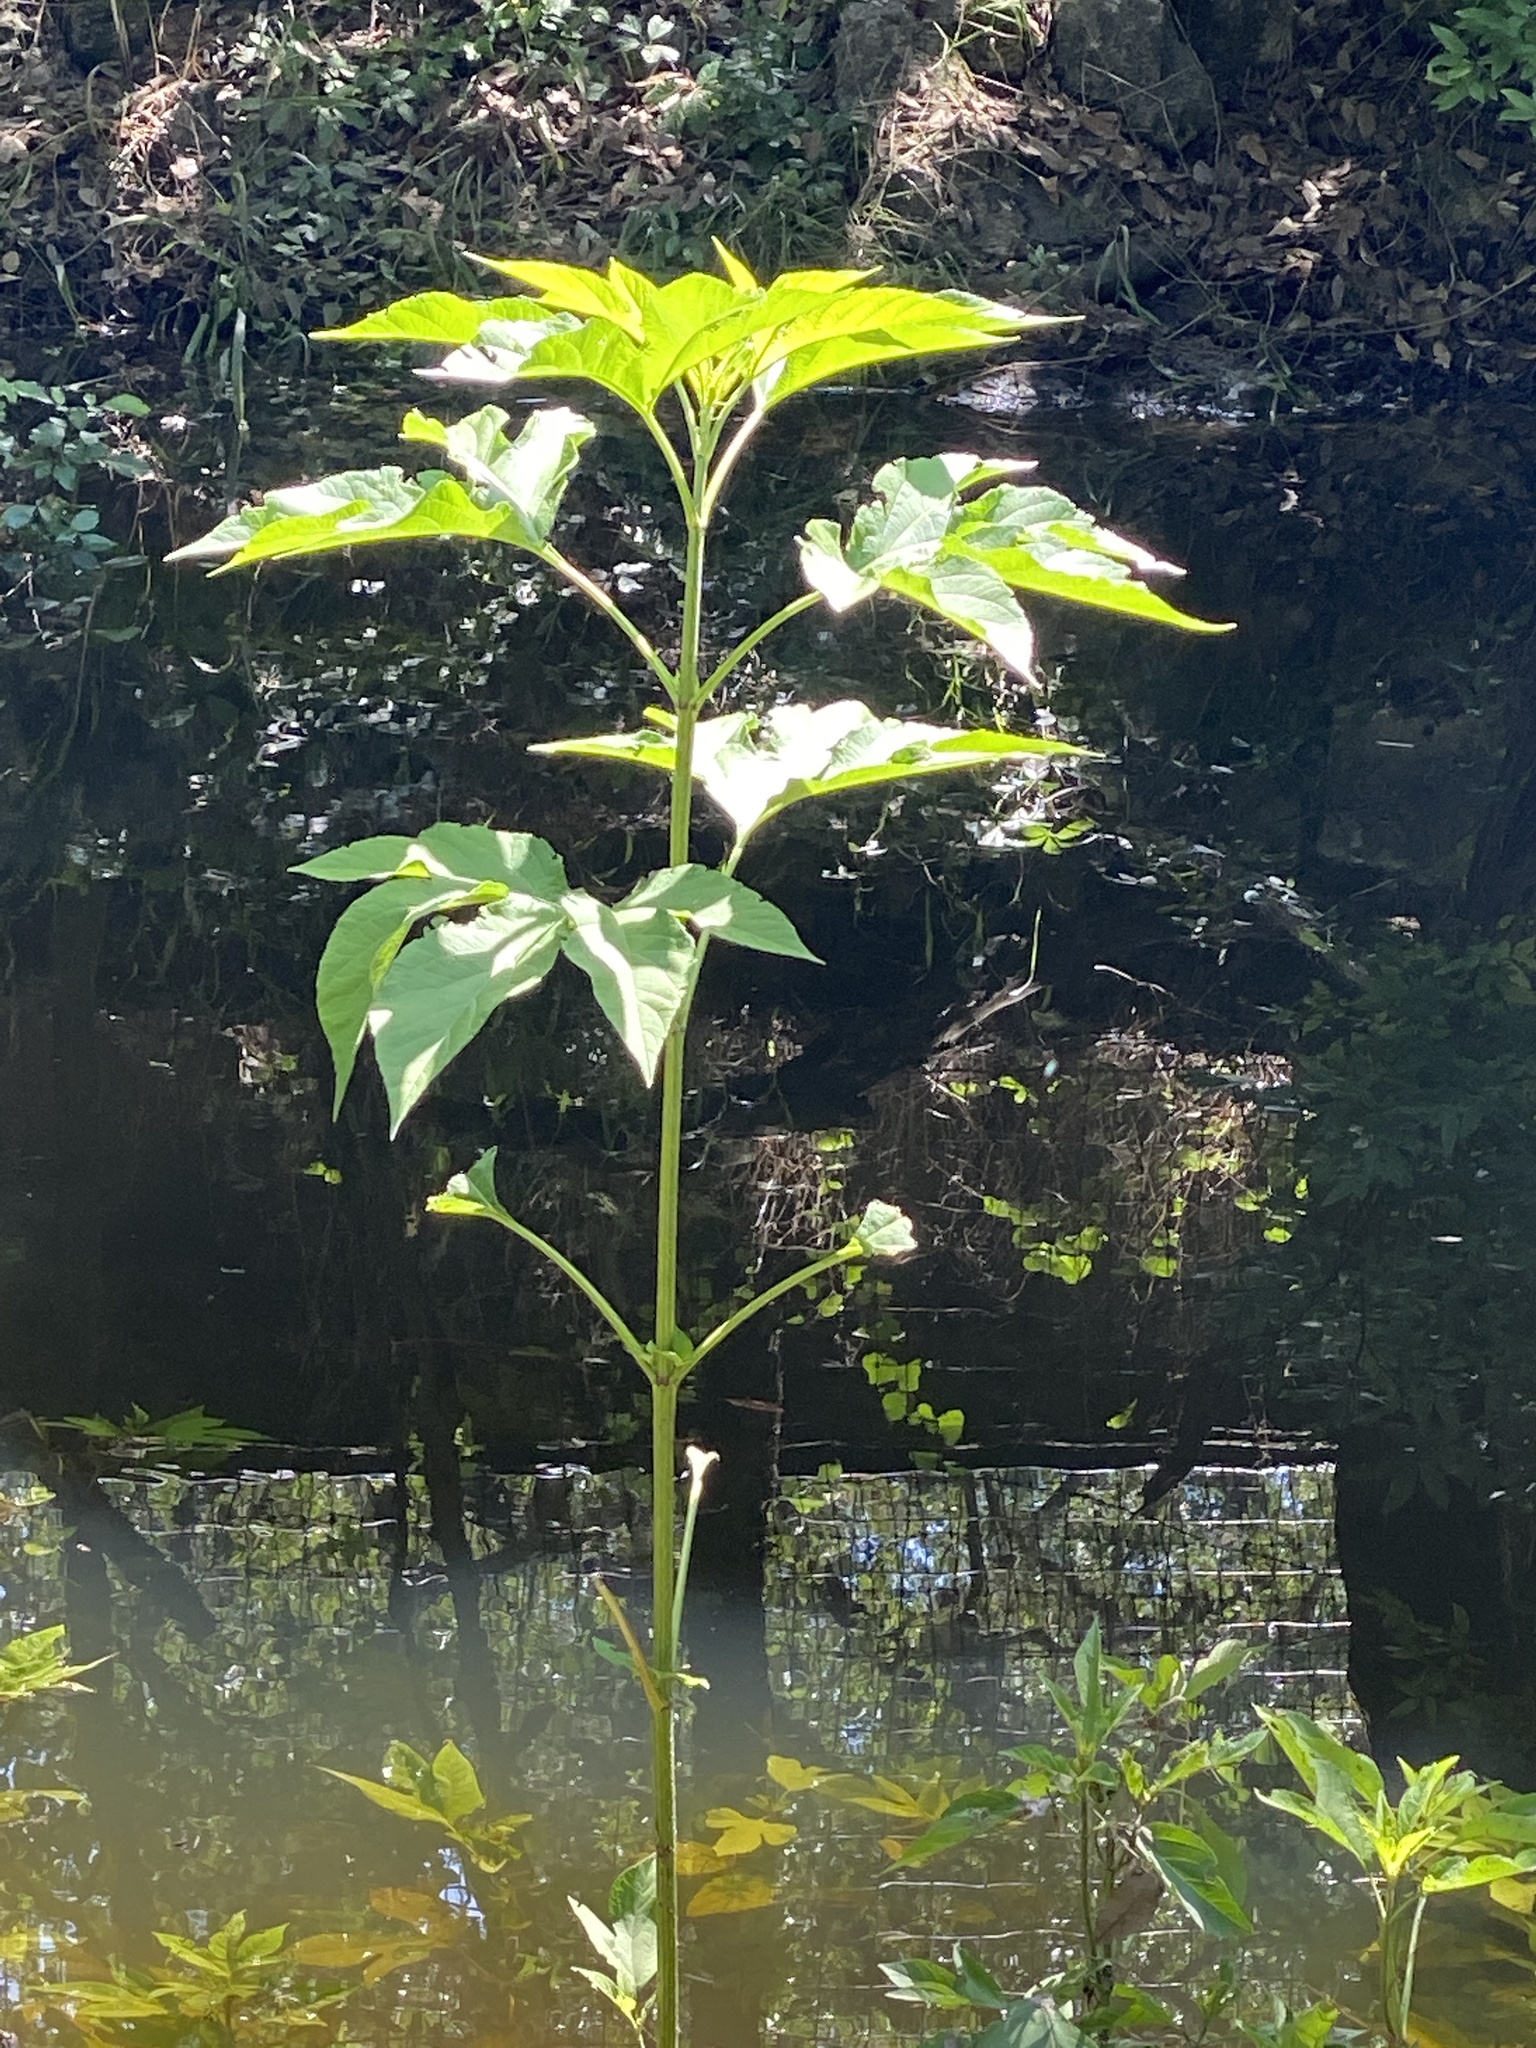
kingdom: Plantae
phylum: Tracheophyta
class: Magnoliopsida
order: Asterales
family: Asteraceae
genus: Ambrosia
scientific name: Ambrosia trifida
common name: Giant ragweed
